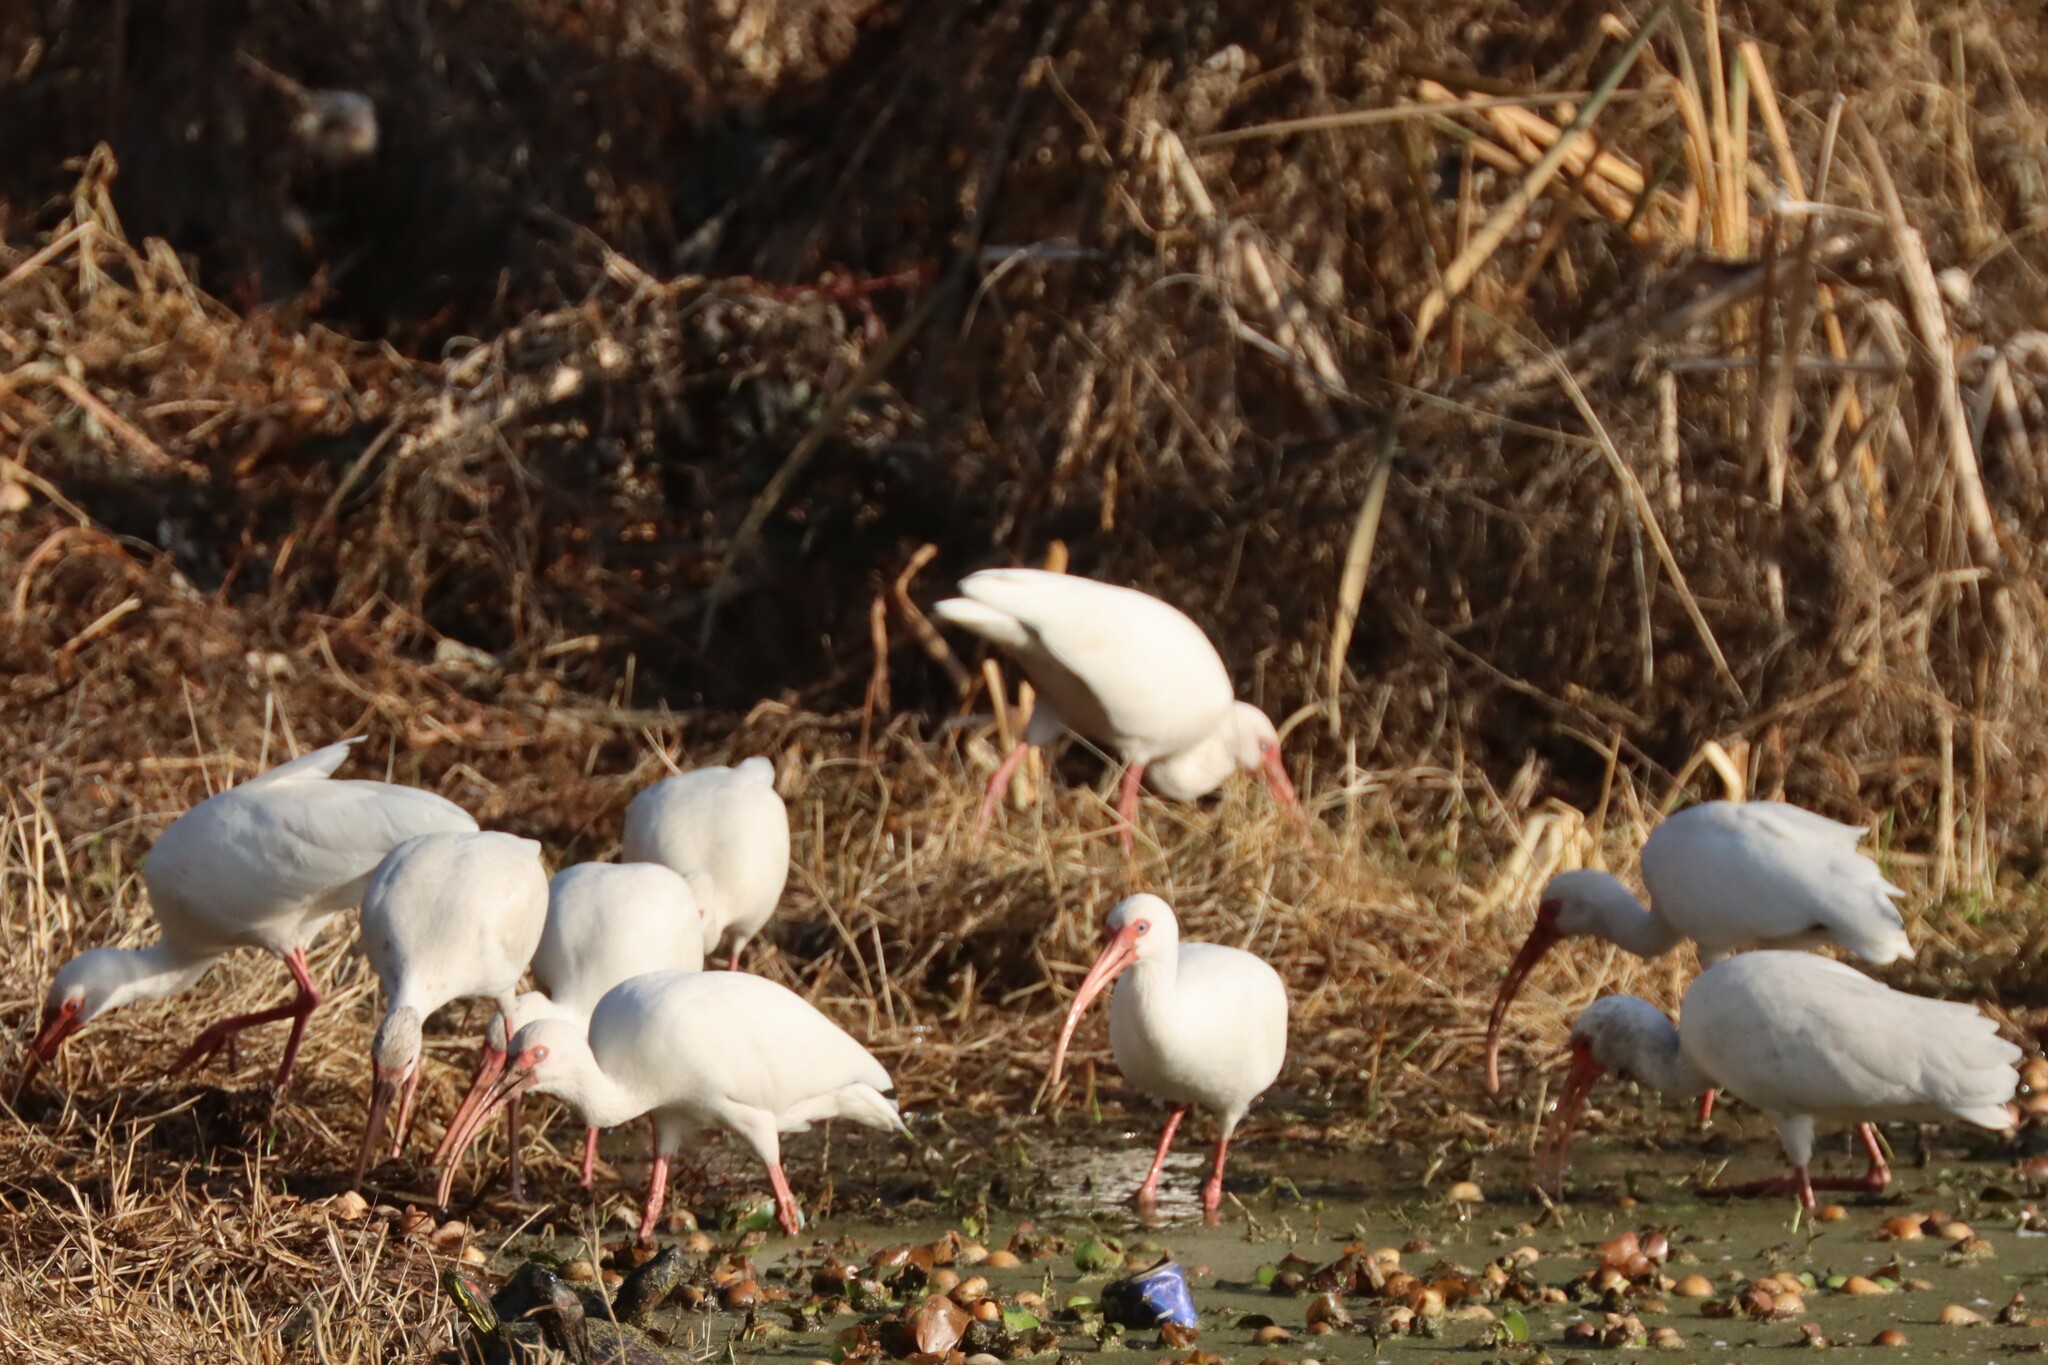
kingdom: Animalia
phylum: Chordata
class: Aves
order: Pelecaniformes
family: Threskiornithidae
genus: Eudocimus
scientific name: Eudocimus albus
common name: White ibis
